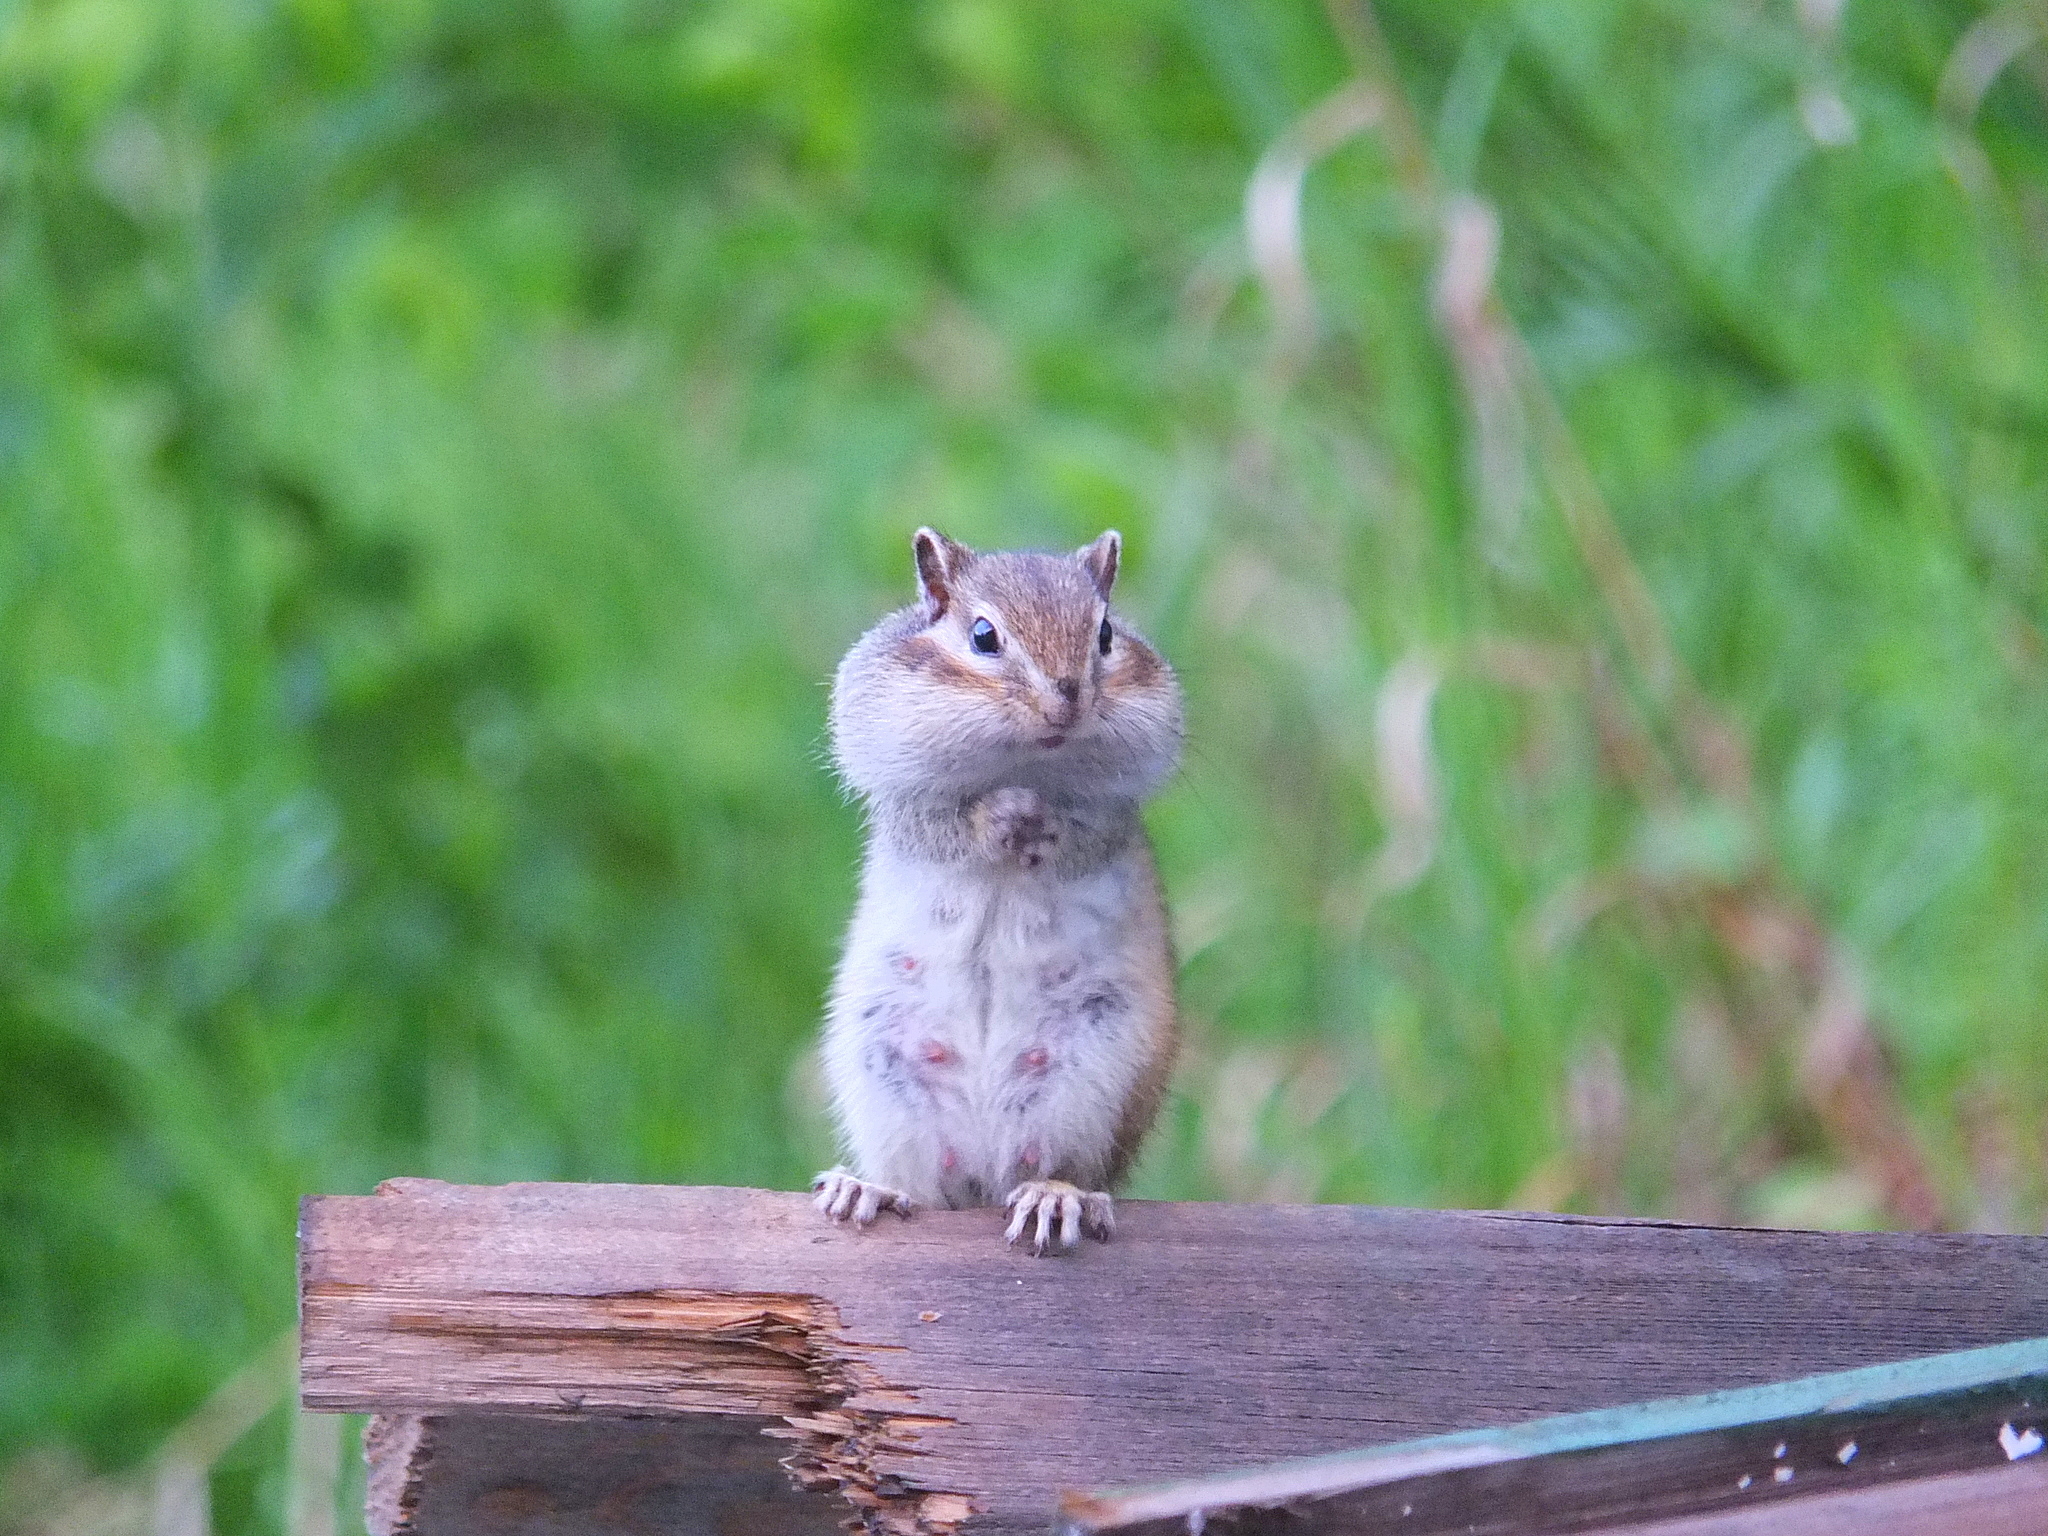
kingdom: Animalia
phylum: Chordata
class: Mammalia
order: Rodentia
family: Sciuridae
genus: Tamias
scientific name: Tamias sibiricus
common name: Siberian chipmunk
